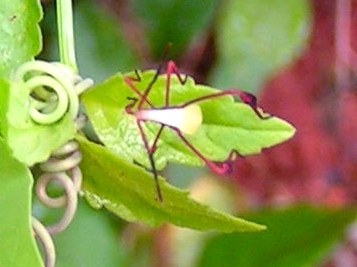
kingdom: Animalia
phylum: Arthropoda
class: Insecta
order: Hemiptera
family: Coreidae
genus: Bitta
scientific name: Bitta
